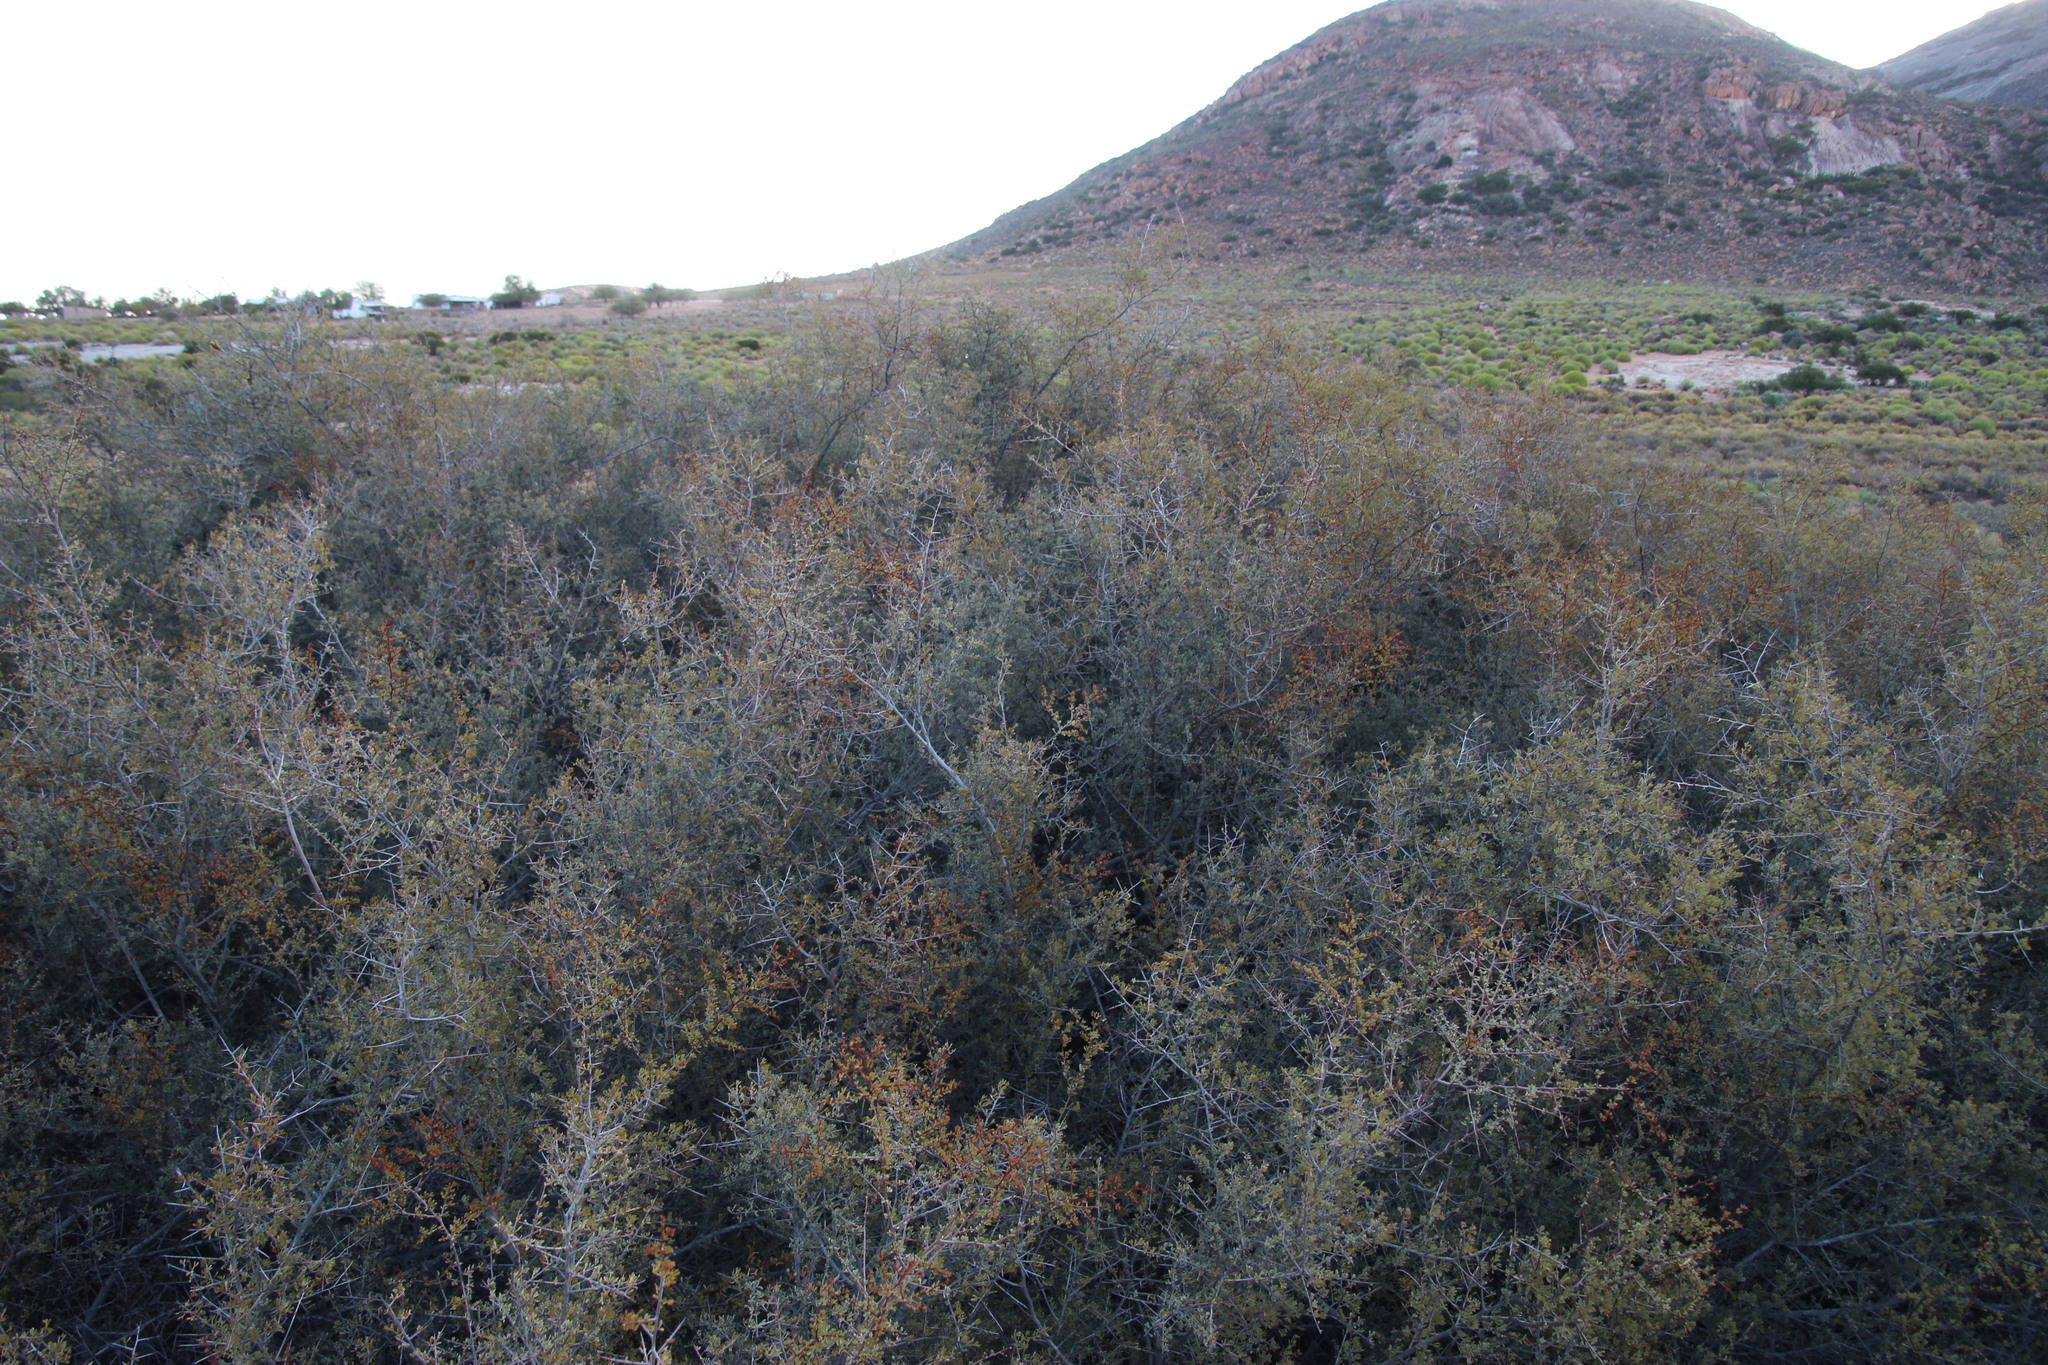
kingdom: Plantae
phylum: Tracheophyta
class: Magnoliopsida
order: Sapindales
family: Anacardiaceae
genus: Searsia
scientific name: Searsia horrida
